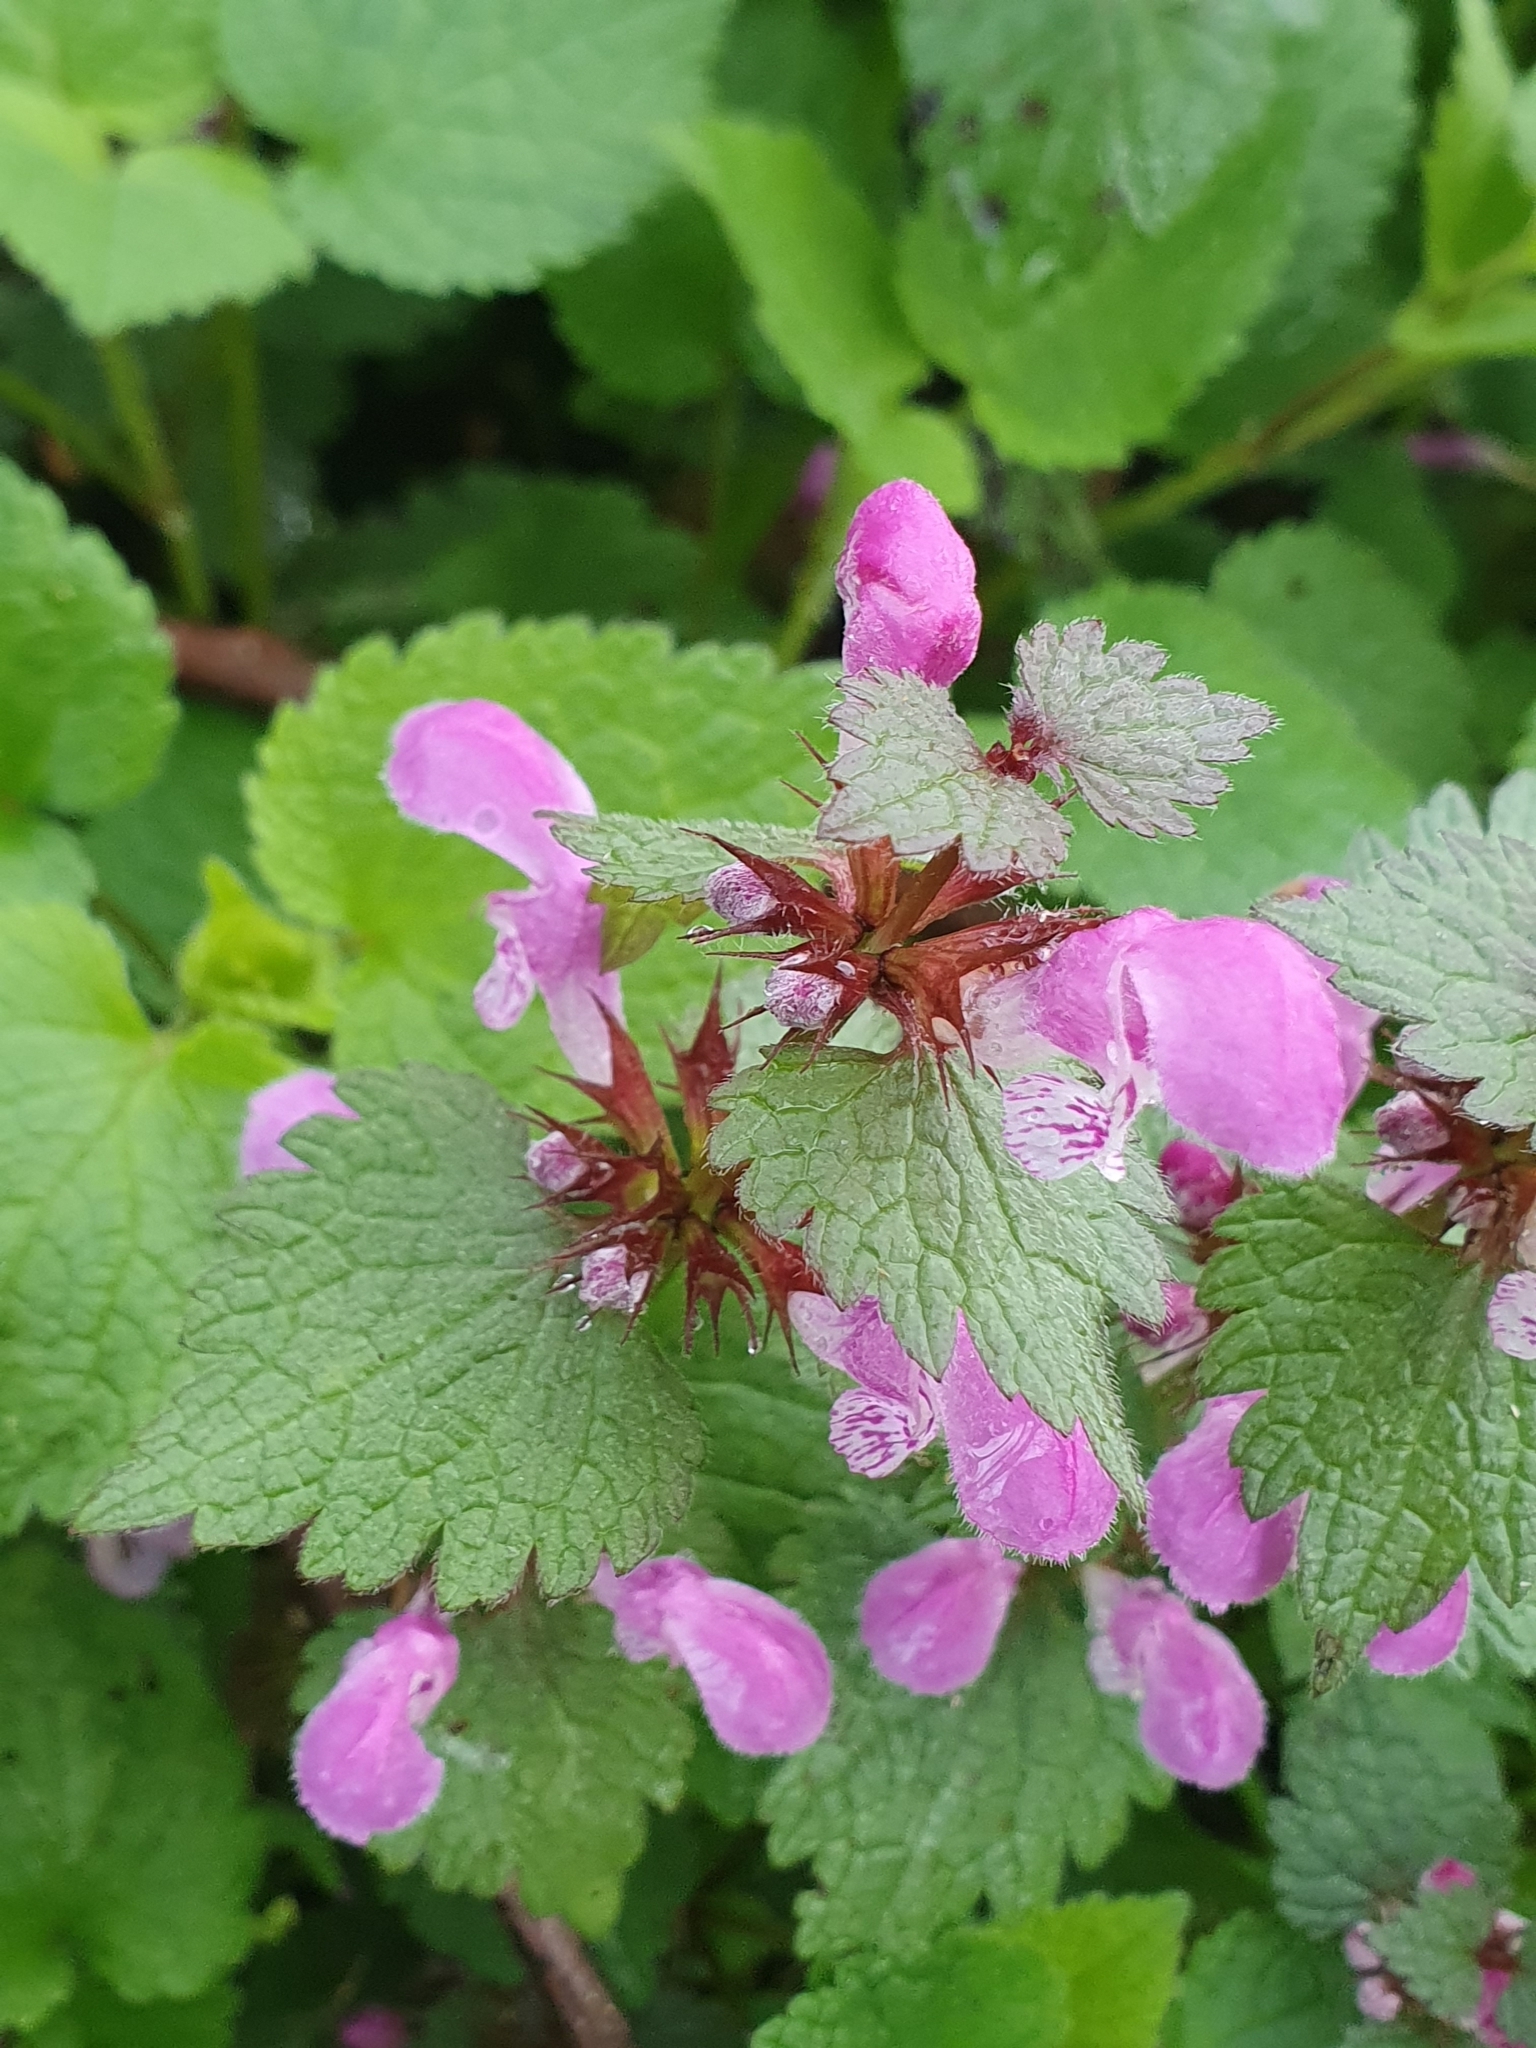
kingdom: Plantae
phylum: Tracheophyta
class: Magnoliopsida
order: Lamiales
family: Lamiaceae
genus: Lamium
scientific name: Lamium purpureum
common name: Red dead-nettle
